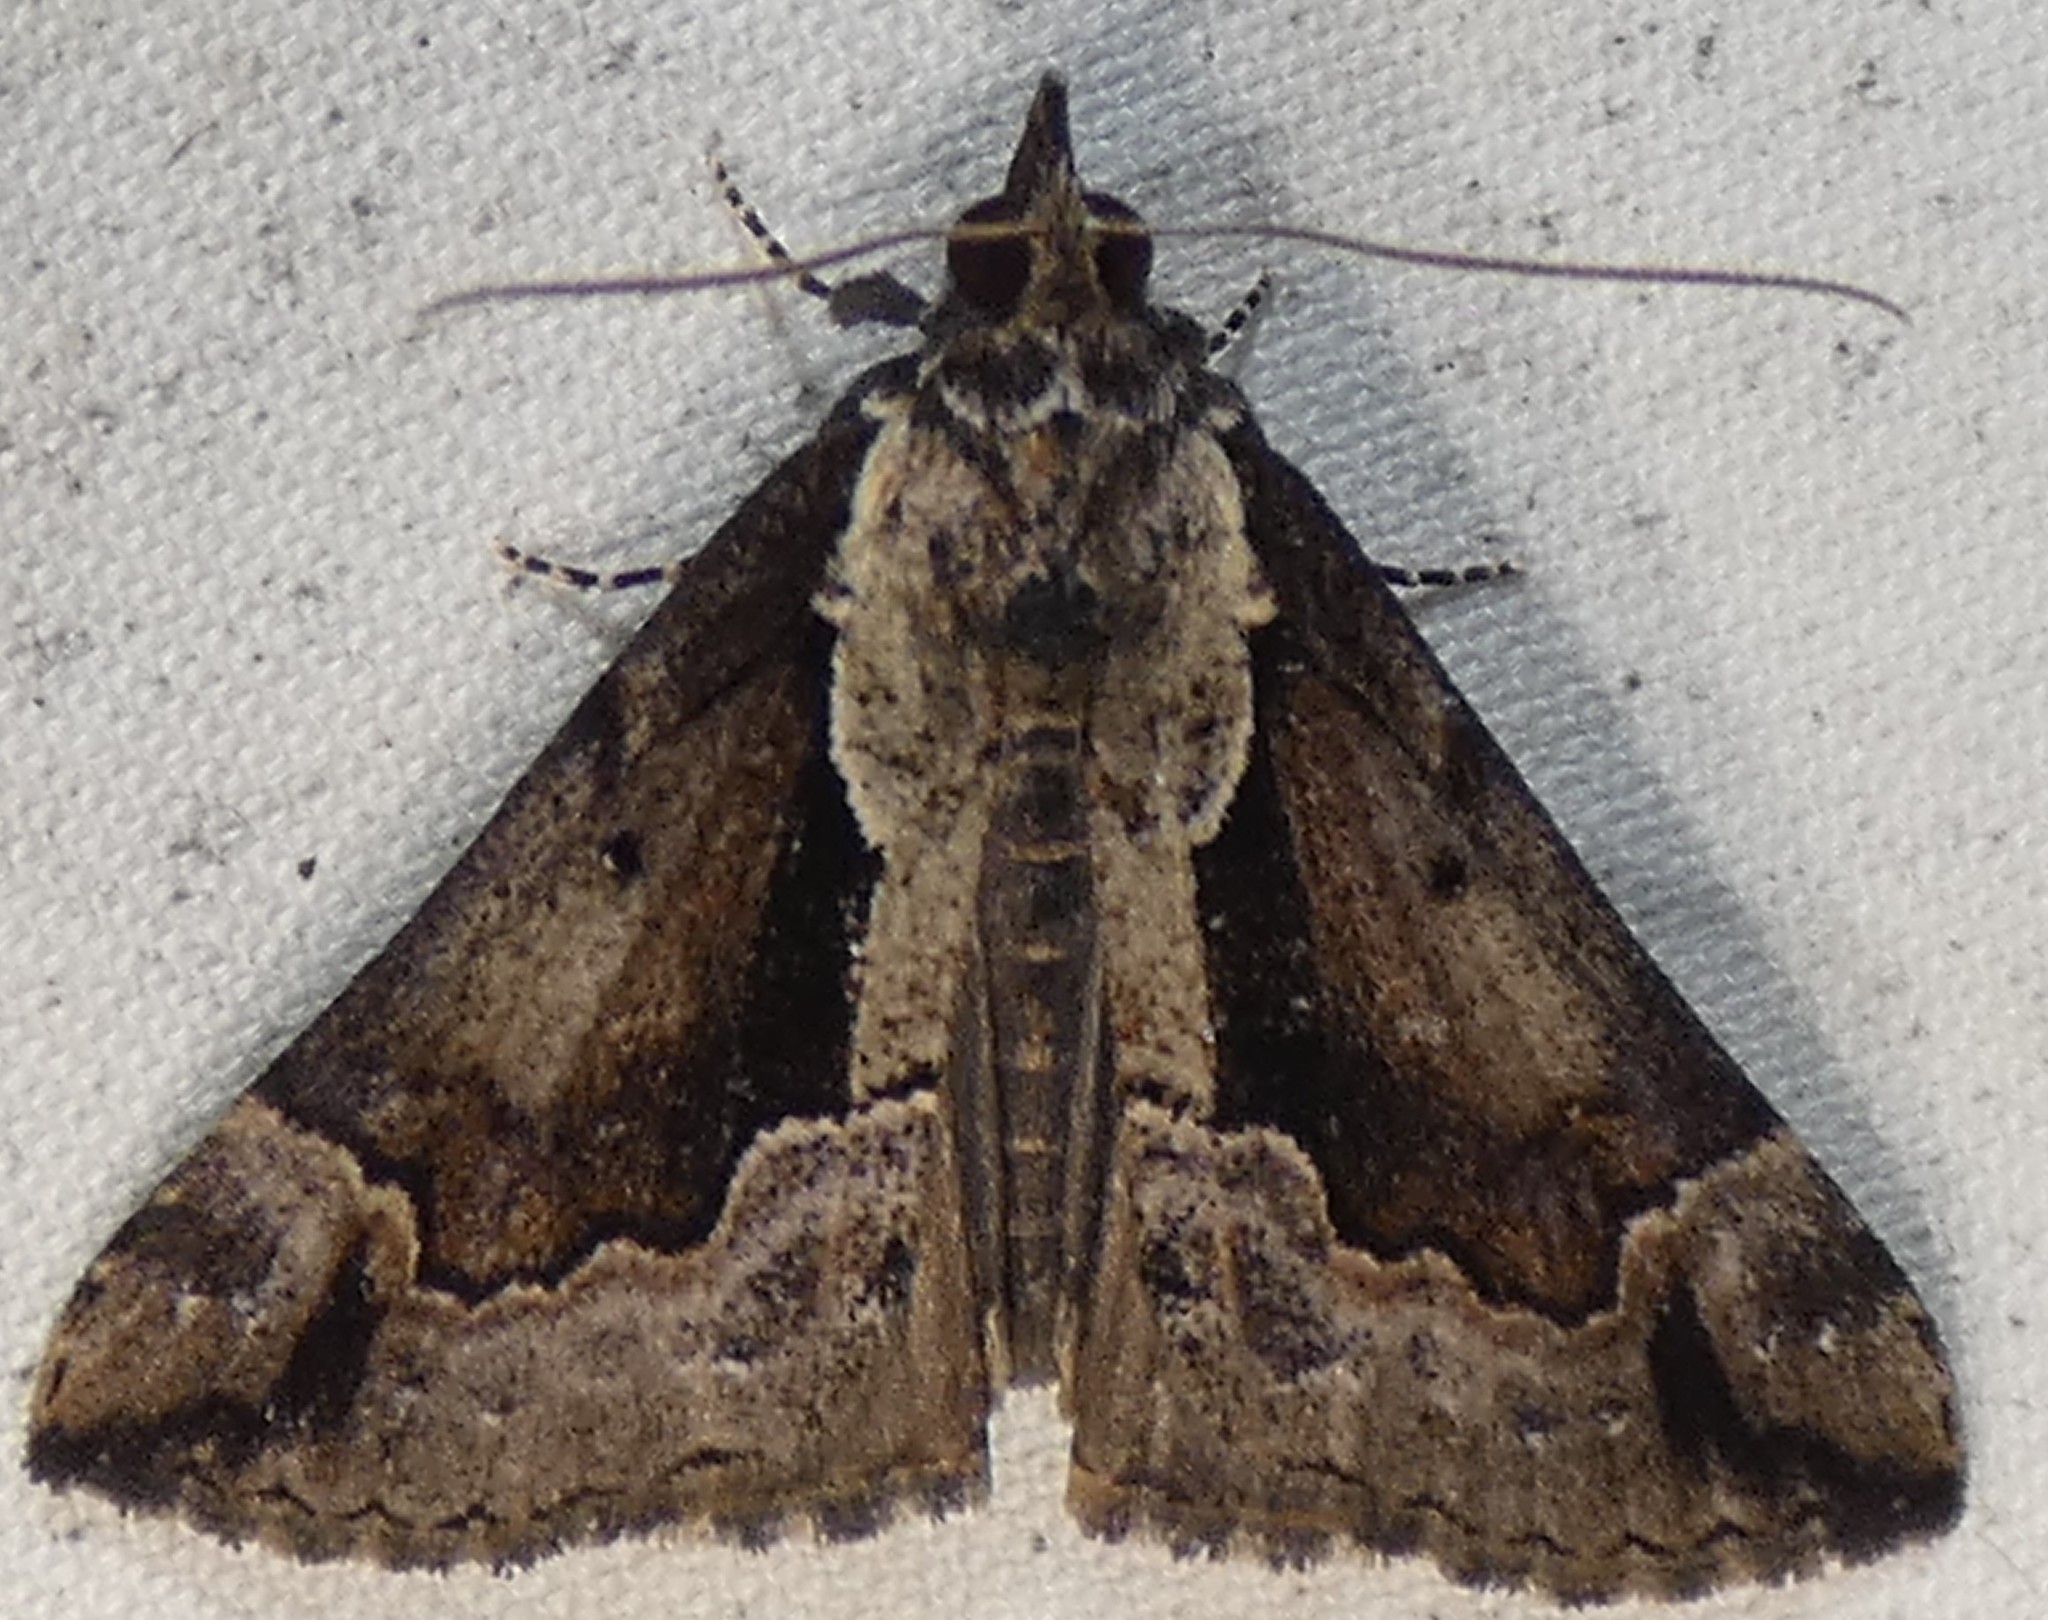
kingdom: Animalia
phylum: Arthropoda
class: Insecta
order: Lepidoptera
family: Erebidae
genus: Hypena
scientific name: Hypena baltimoralis
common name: Baltimore snout
